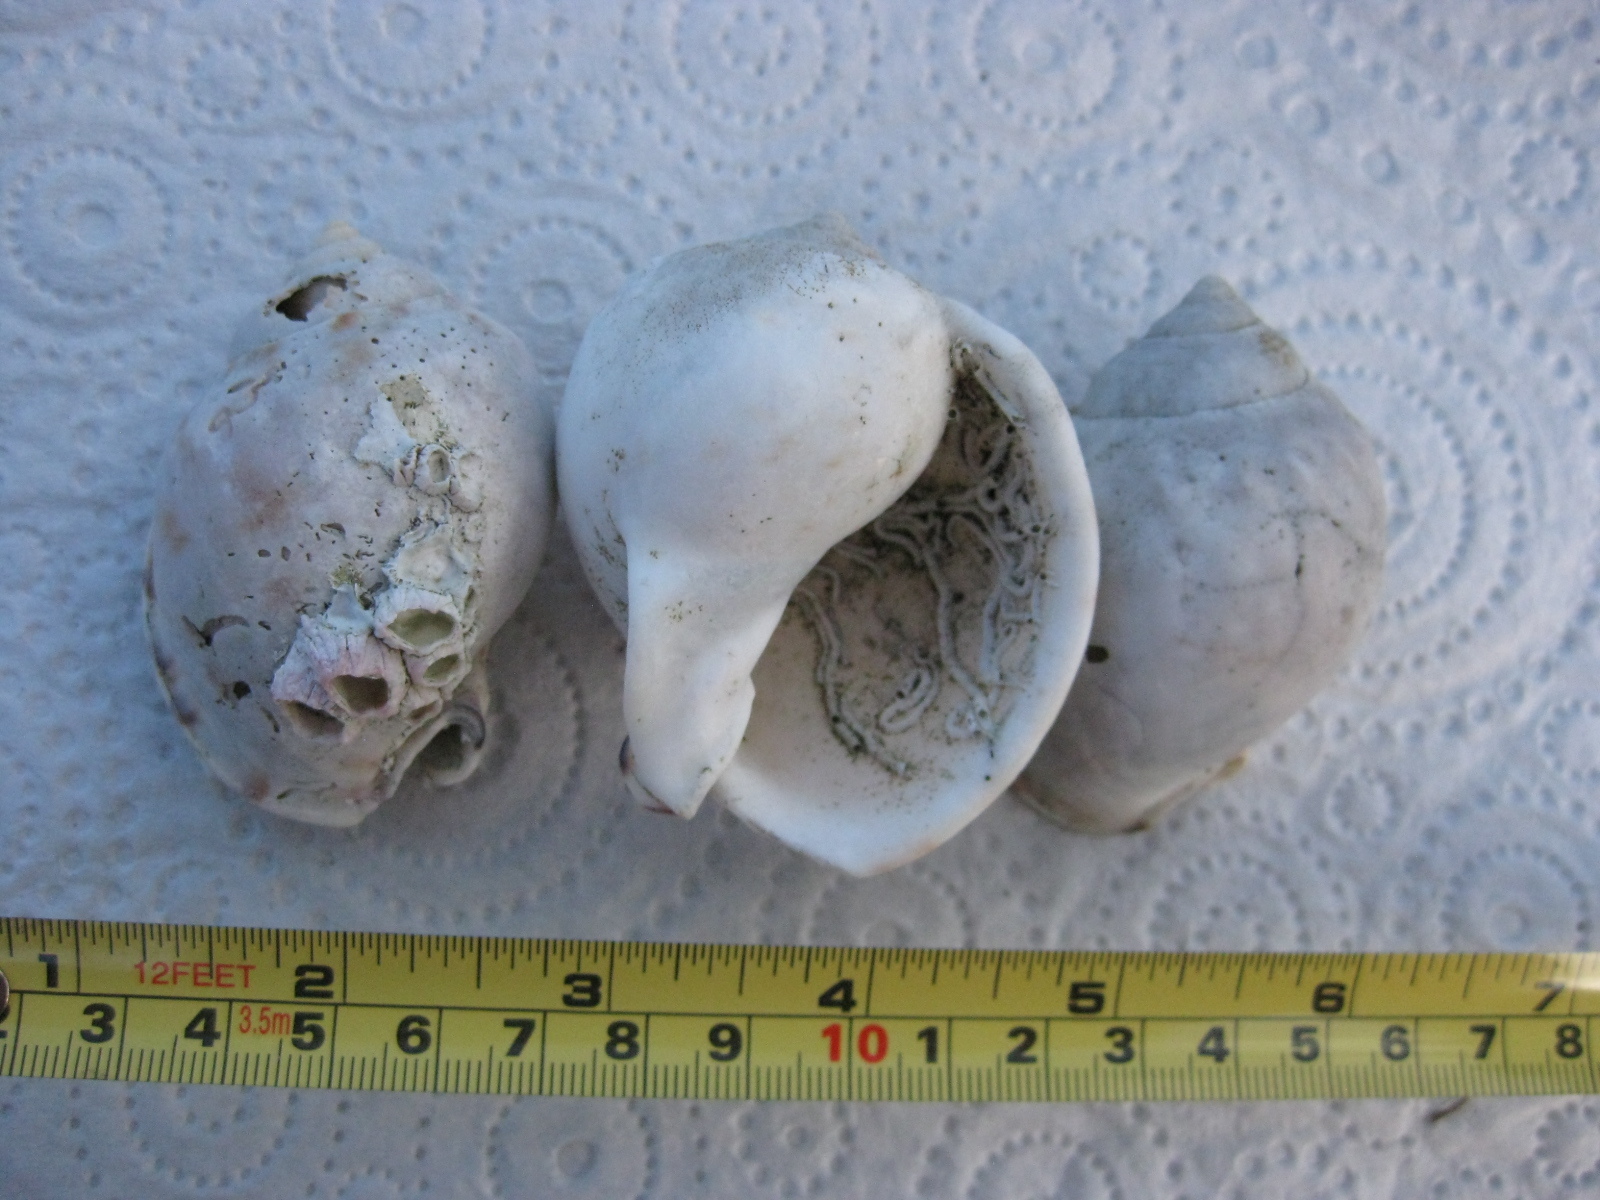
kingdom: Animalia
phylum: Mollusca
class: Gastropoda
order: Littorinimorpha
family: Cassidae
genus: Semicassis
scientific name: Semicassis pyrum
